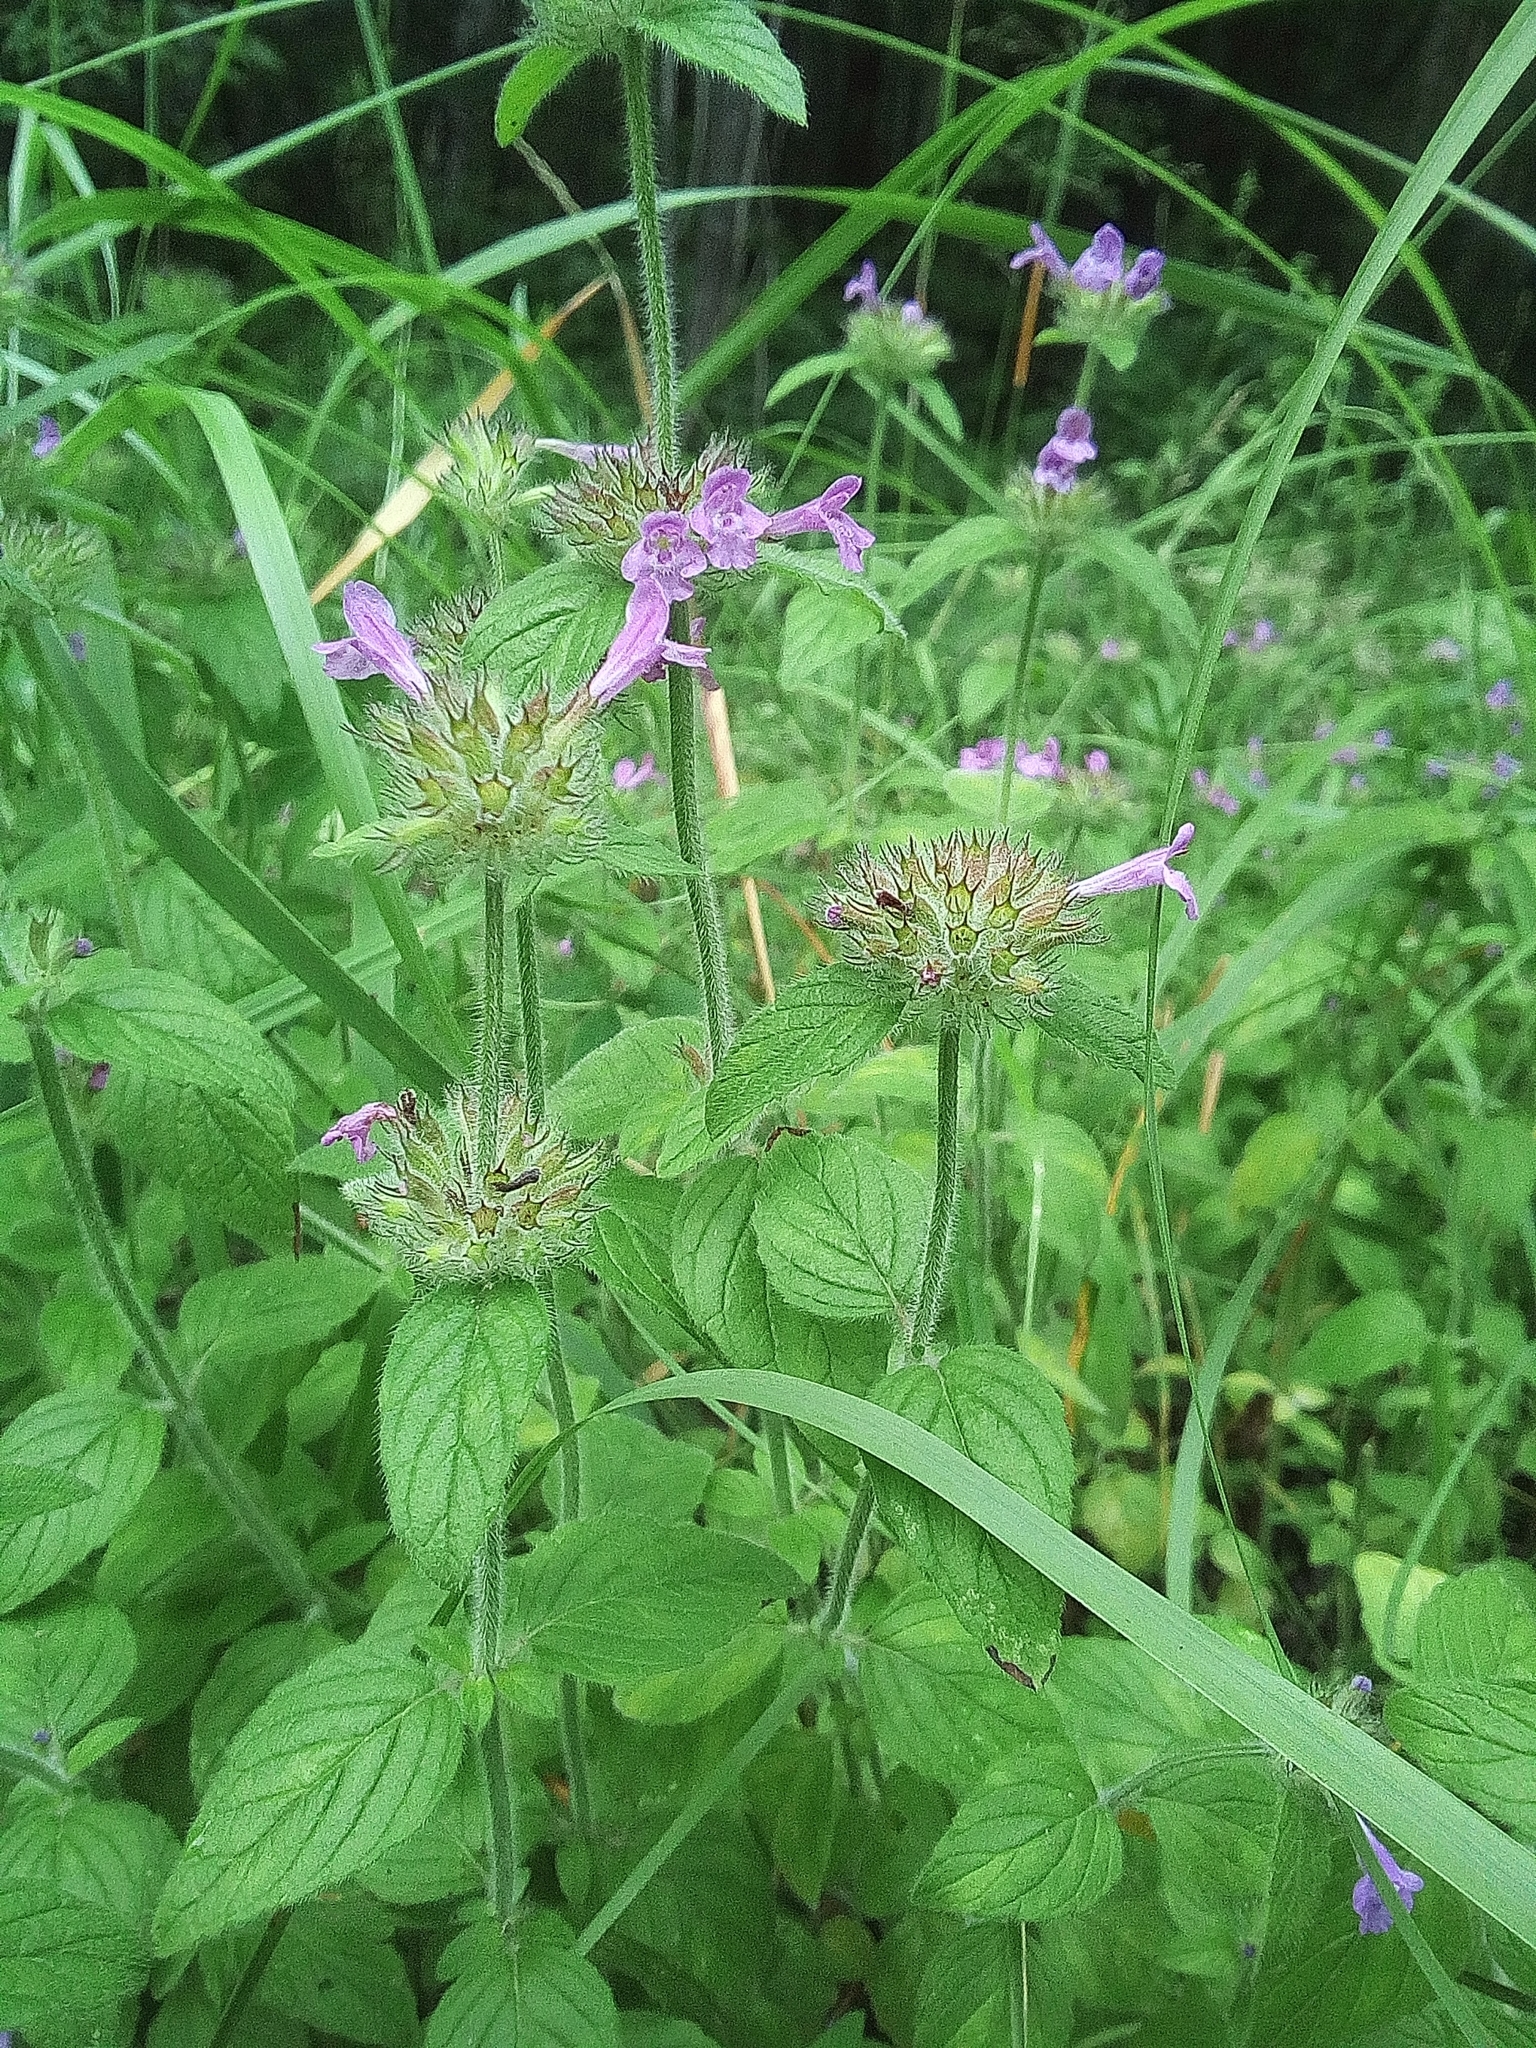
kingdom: Plantae
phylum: Tracheophyta
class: Magnoliopsida
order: Lamiales
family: Lamiaceae
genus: Clinopodium
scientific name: Clinopodium vulgare
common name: Wild basil
